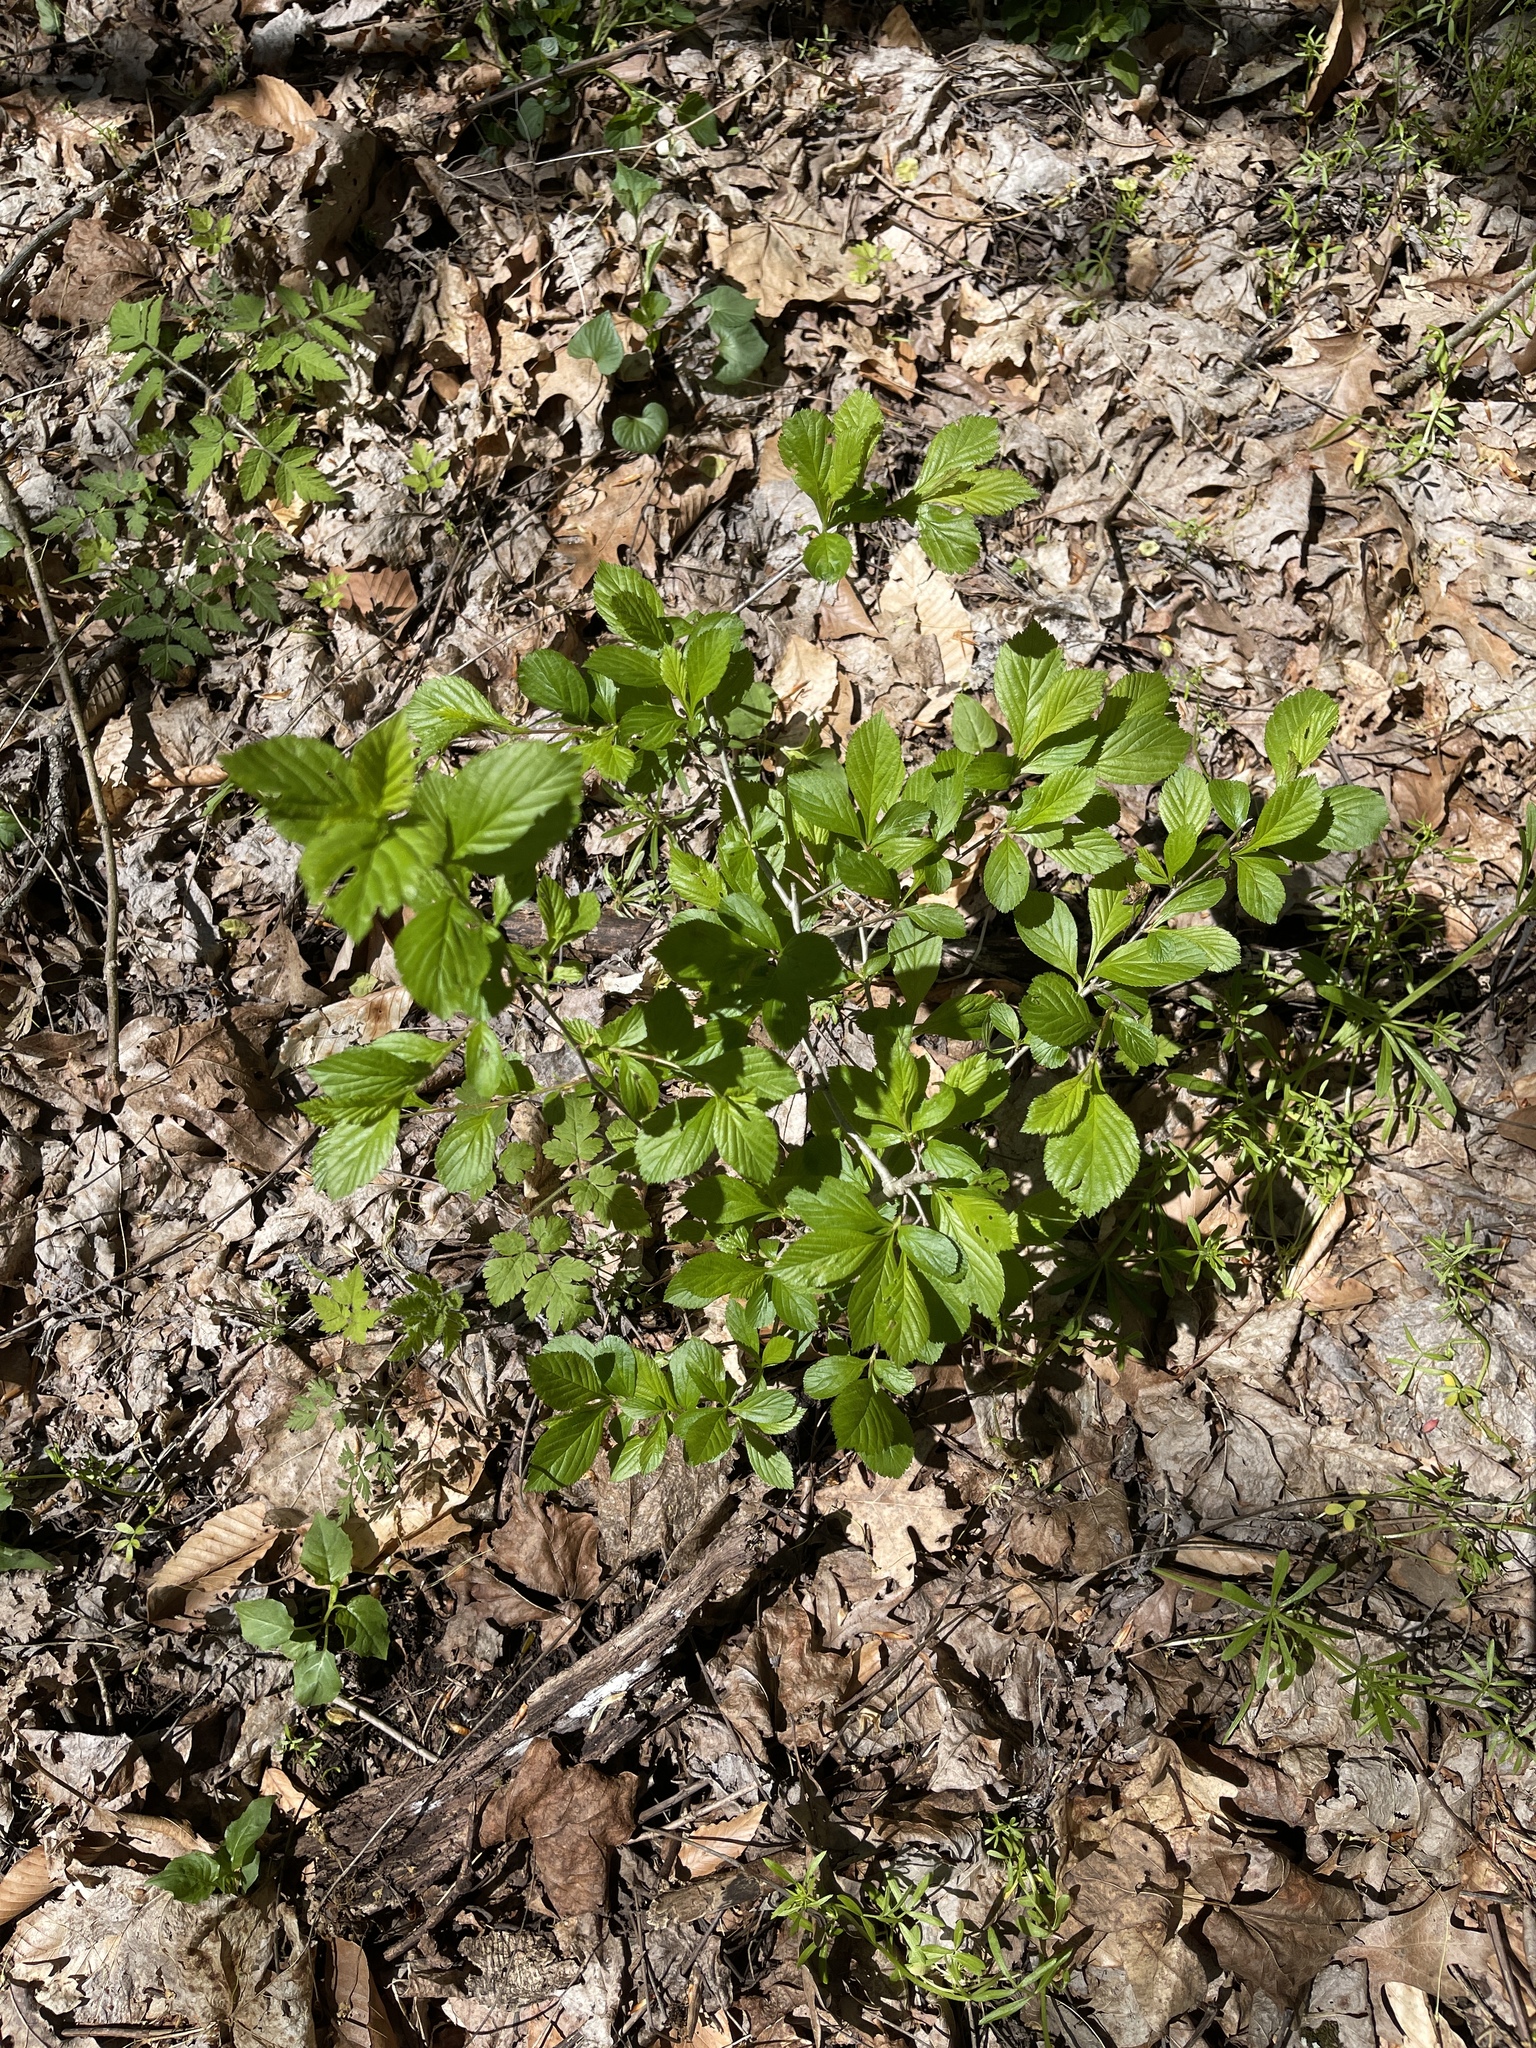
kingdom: Plantae
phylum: Tracheophyta
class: Magnoliopsida
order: Rosales
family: Rosaceae
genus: Crataegus
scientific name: Crataegus punctata
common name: Dotted hawthorn
